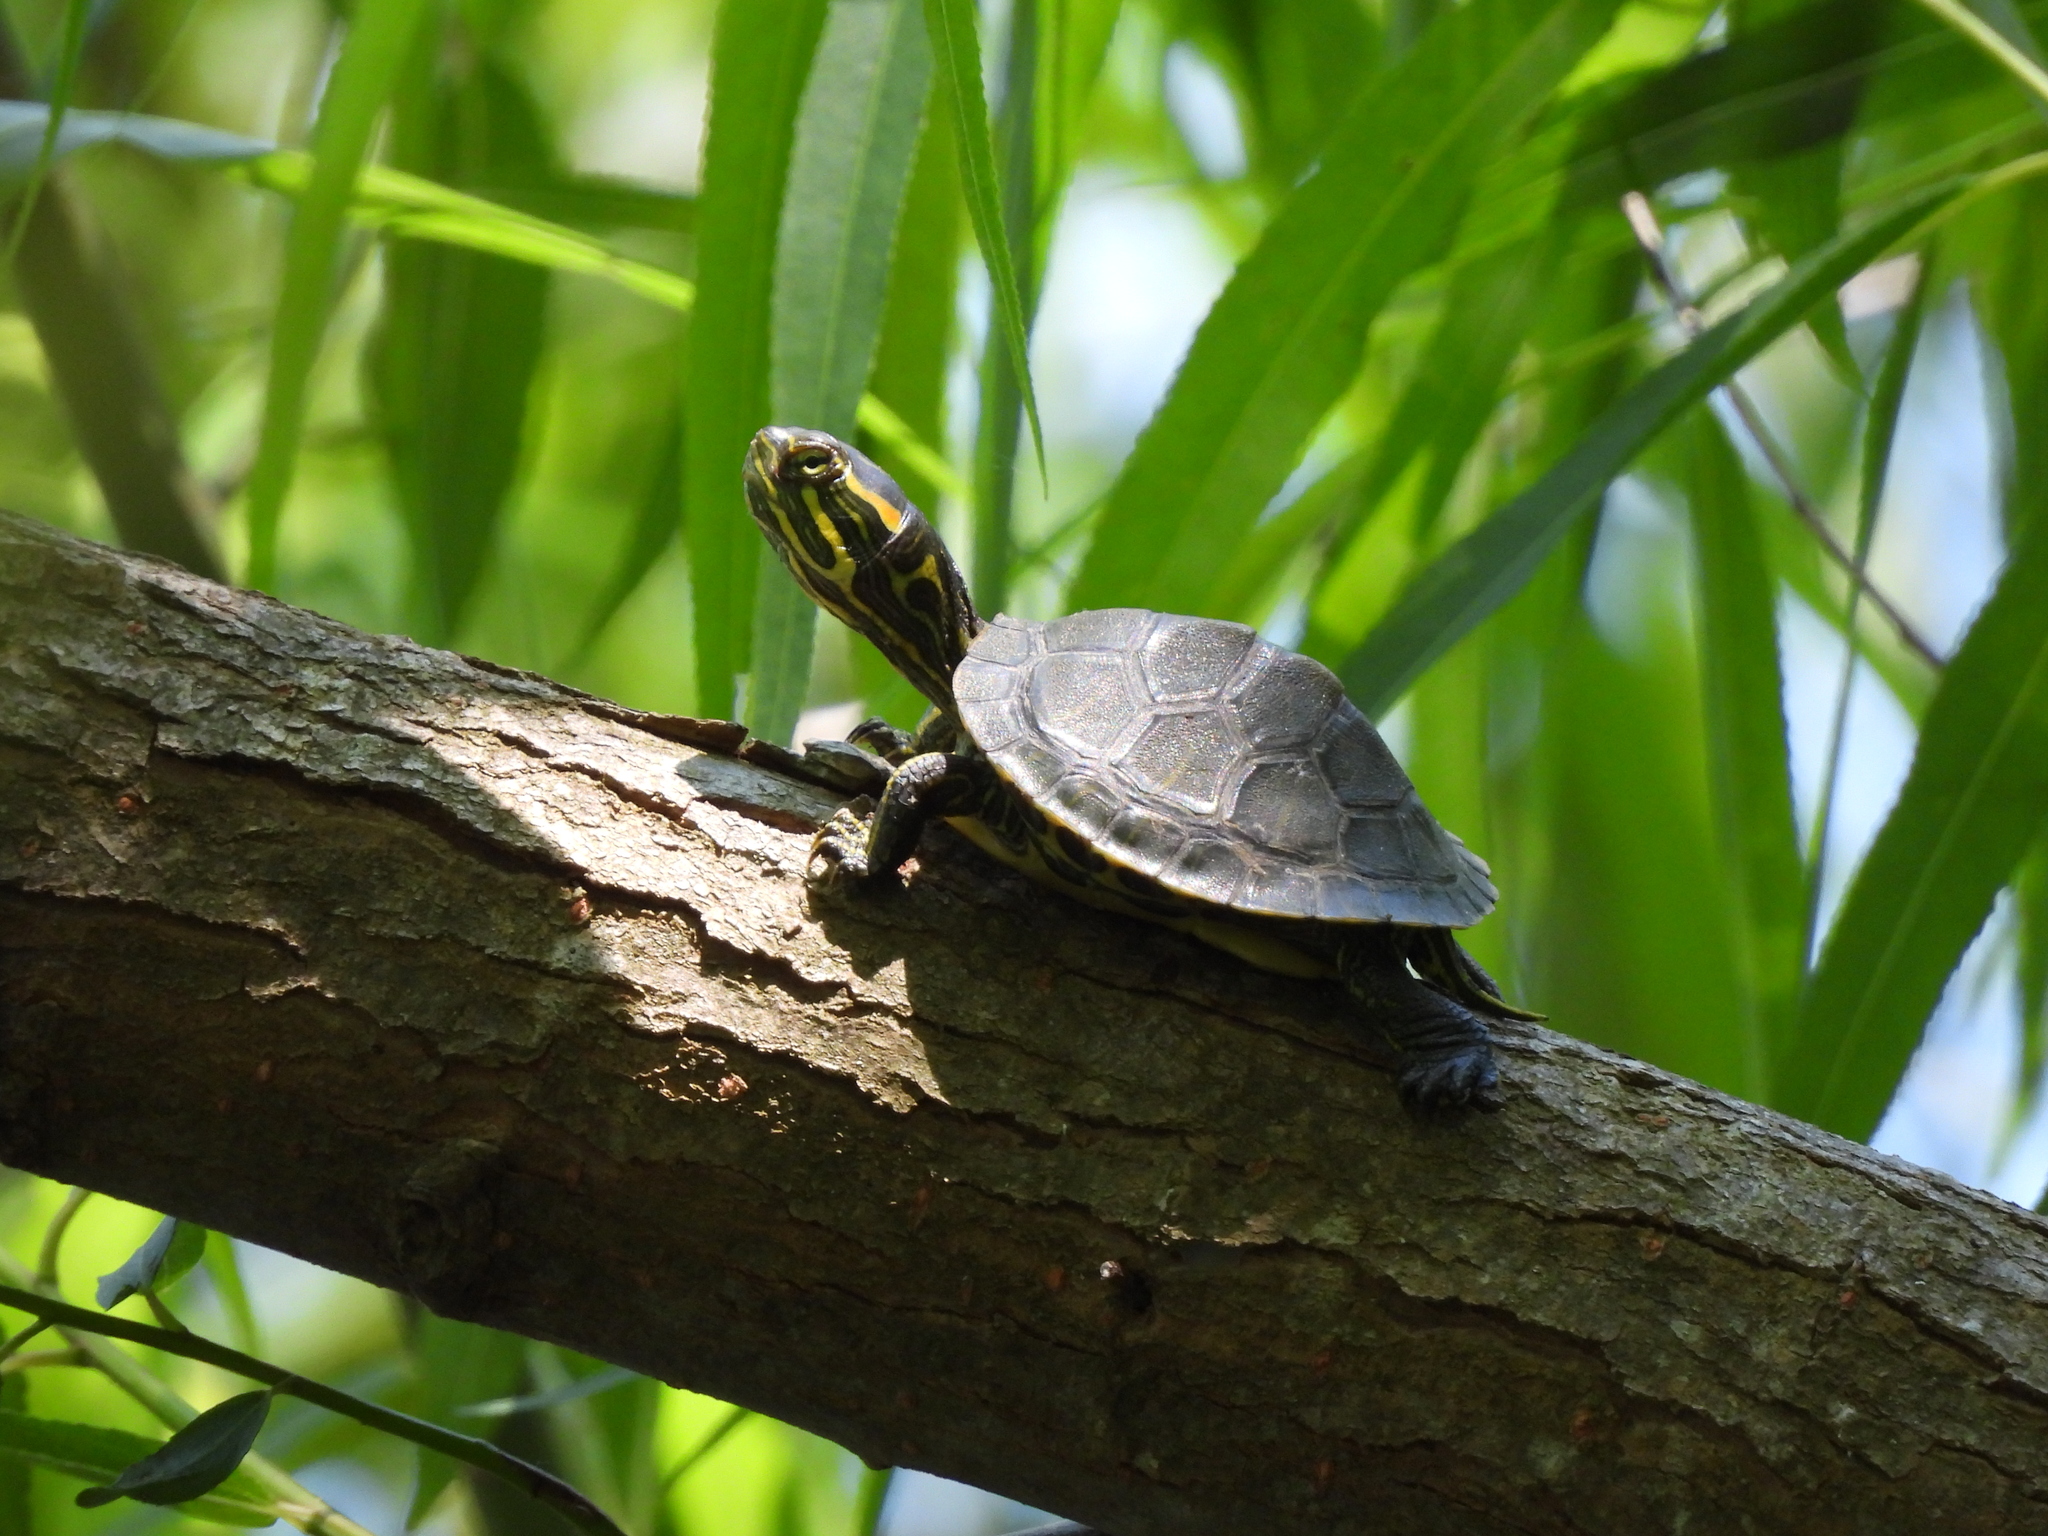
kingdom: Animalia
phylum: Chordata
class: Testudines
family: Emydidae
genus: Trachemys
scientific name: Trachemys scripta
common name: Slider
